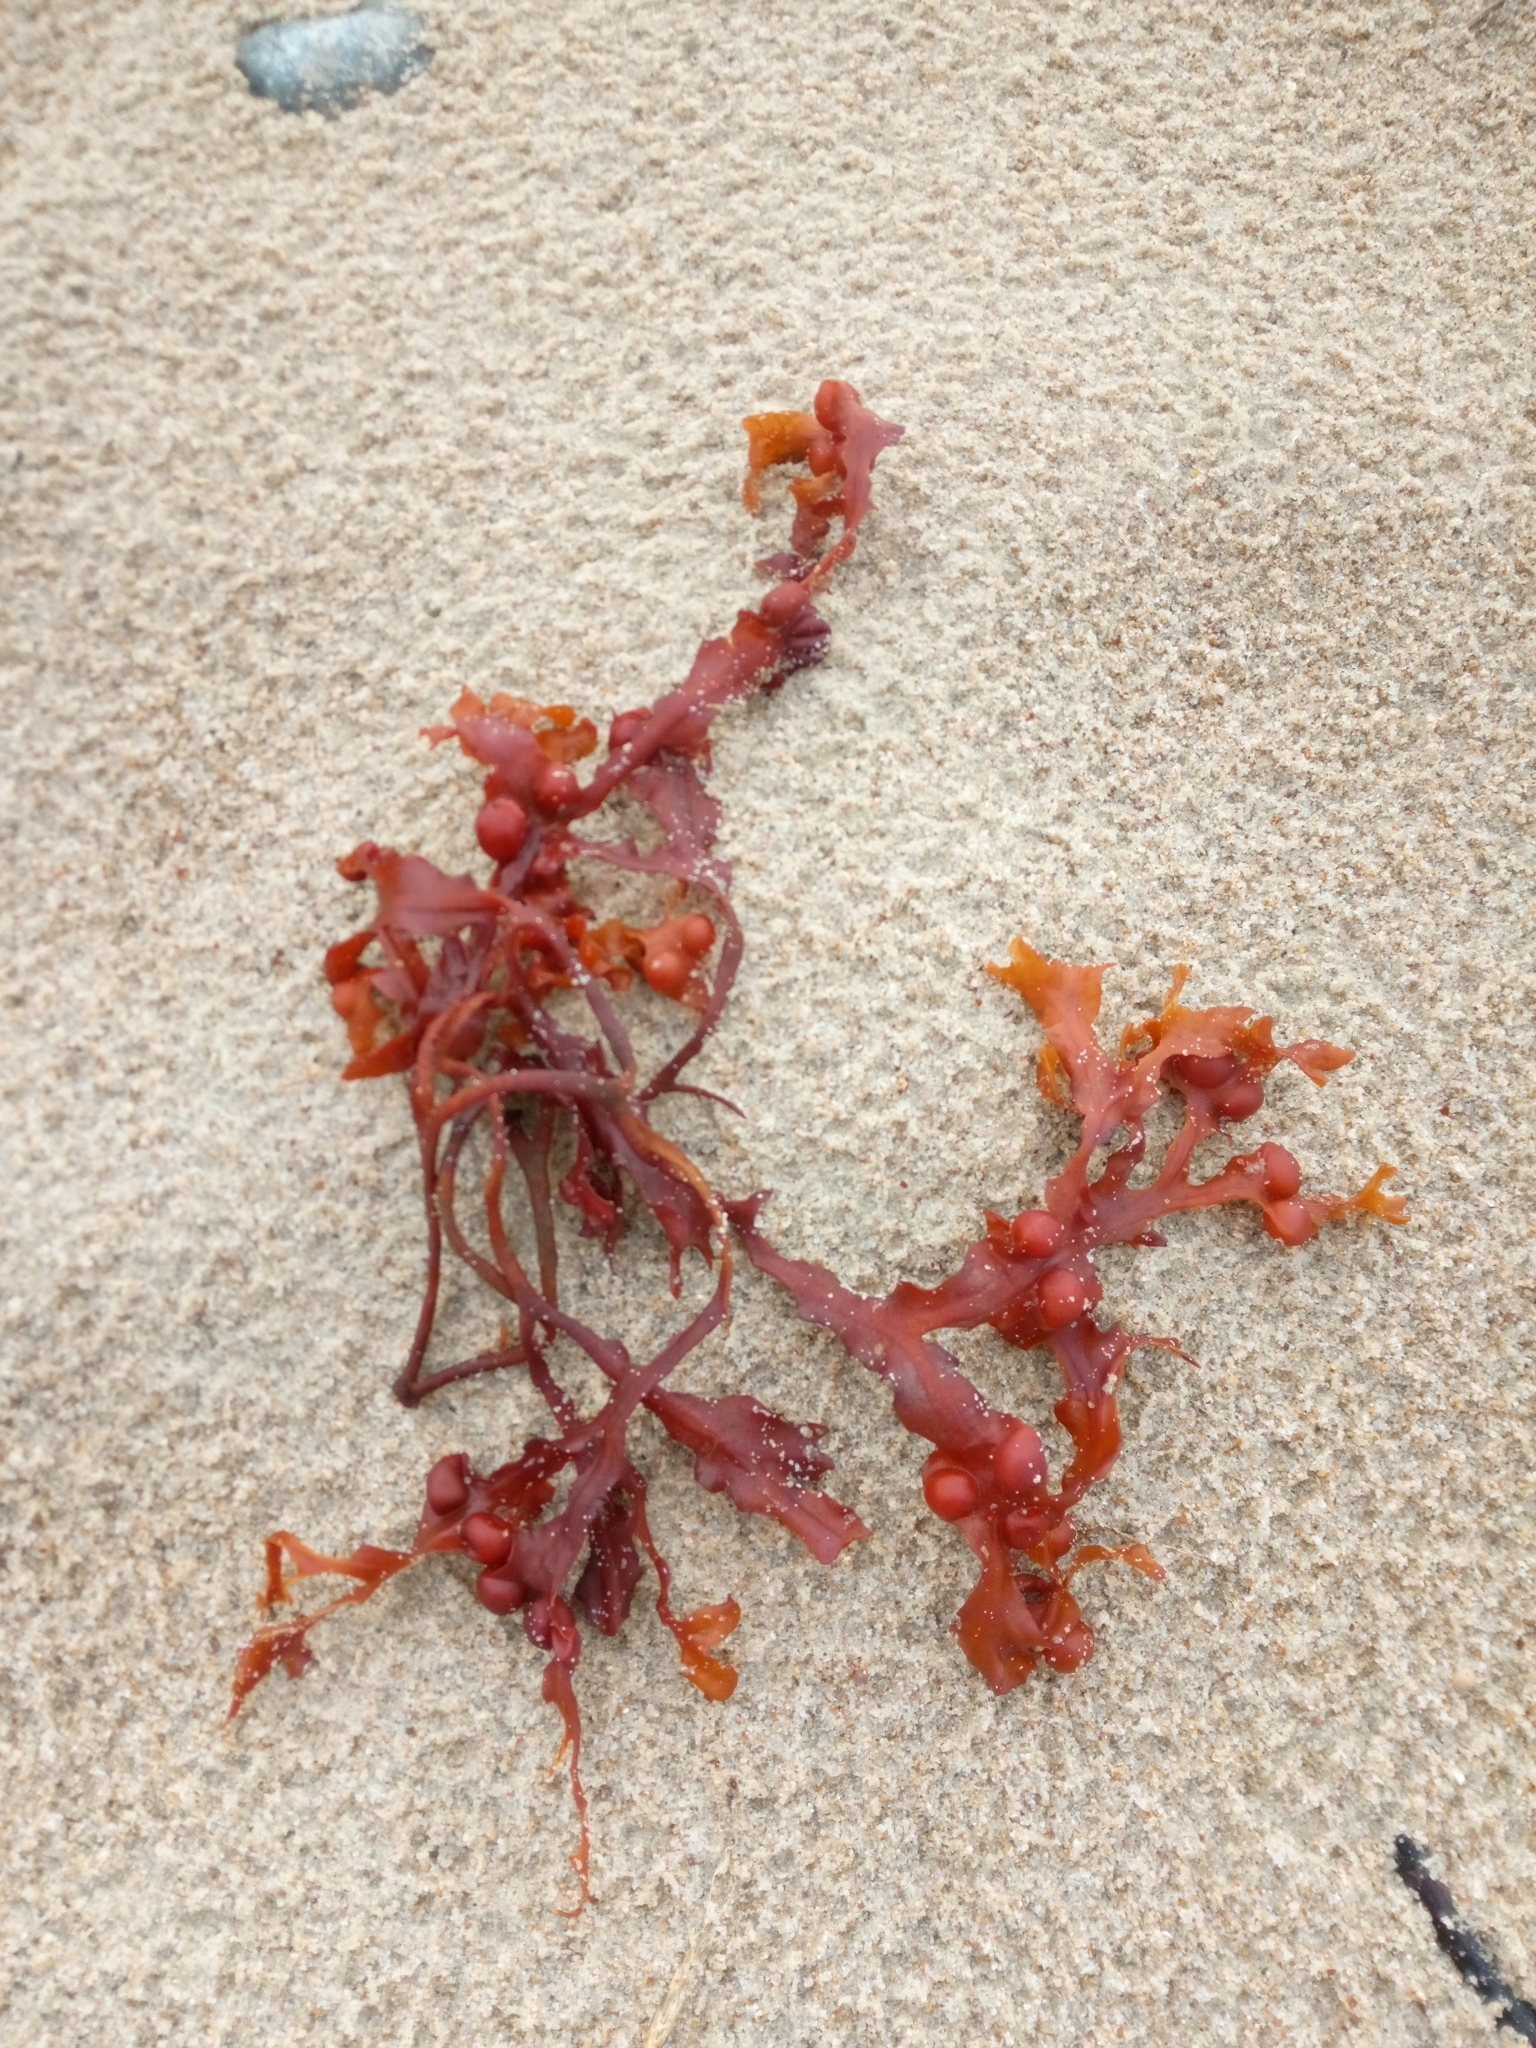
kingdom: Chromista
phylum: Ochrophyta
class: Phaeophyceae
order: Fucales
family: Fucaceae
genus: Fucus
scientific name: Fucus vesiculosus
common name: Bladder wrack
